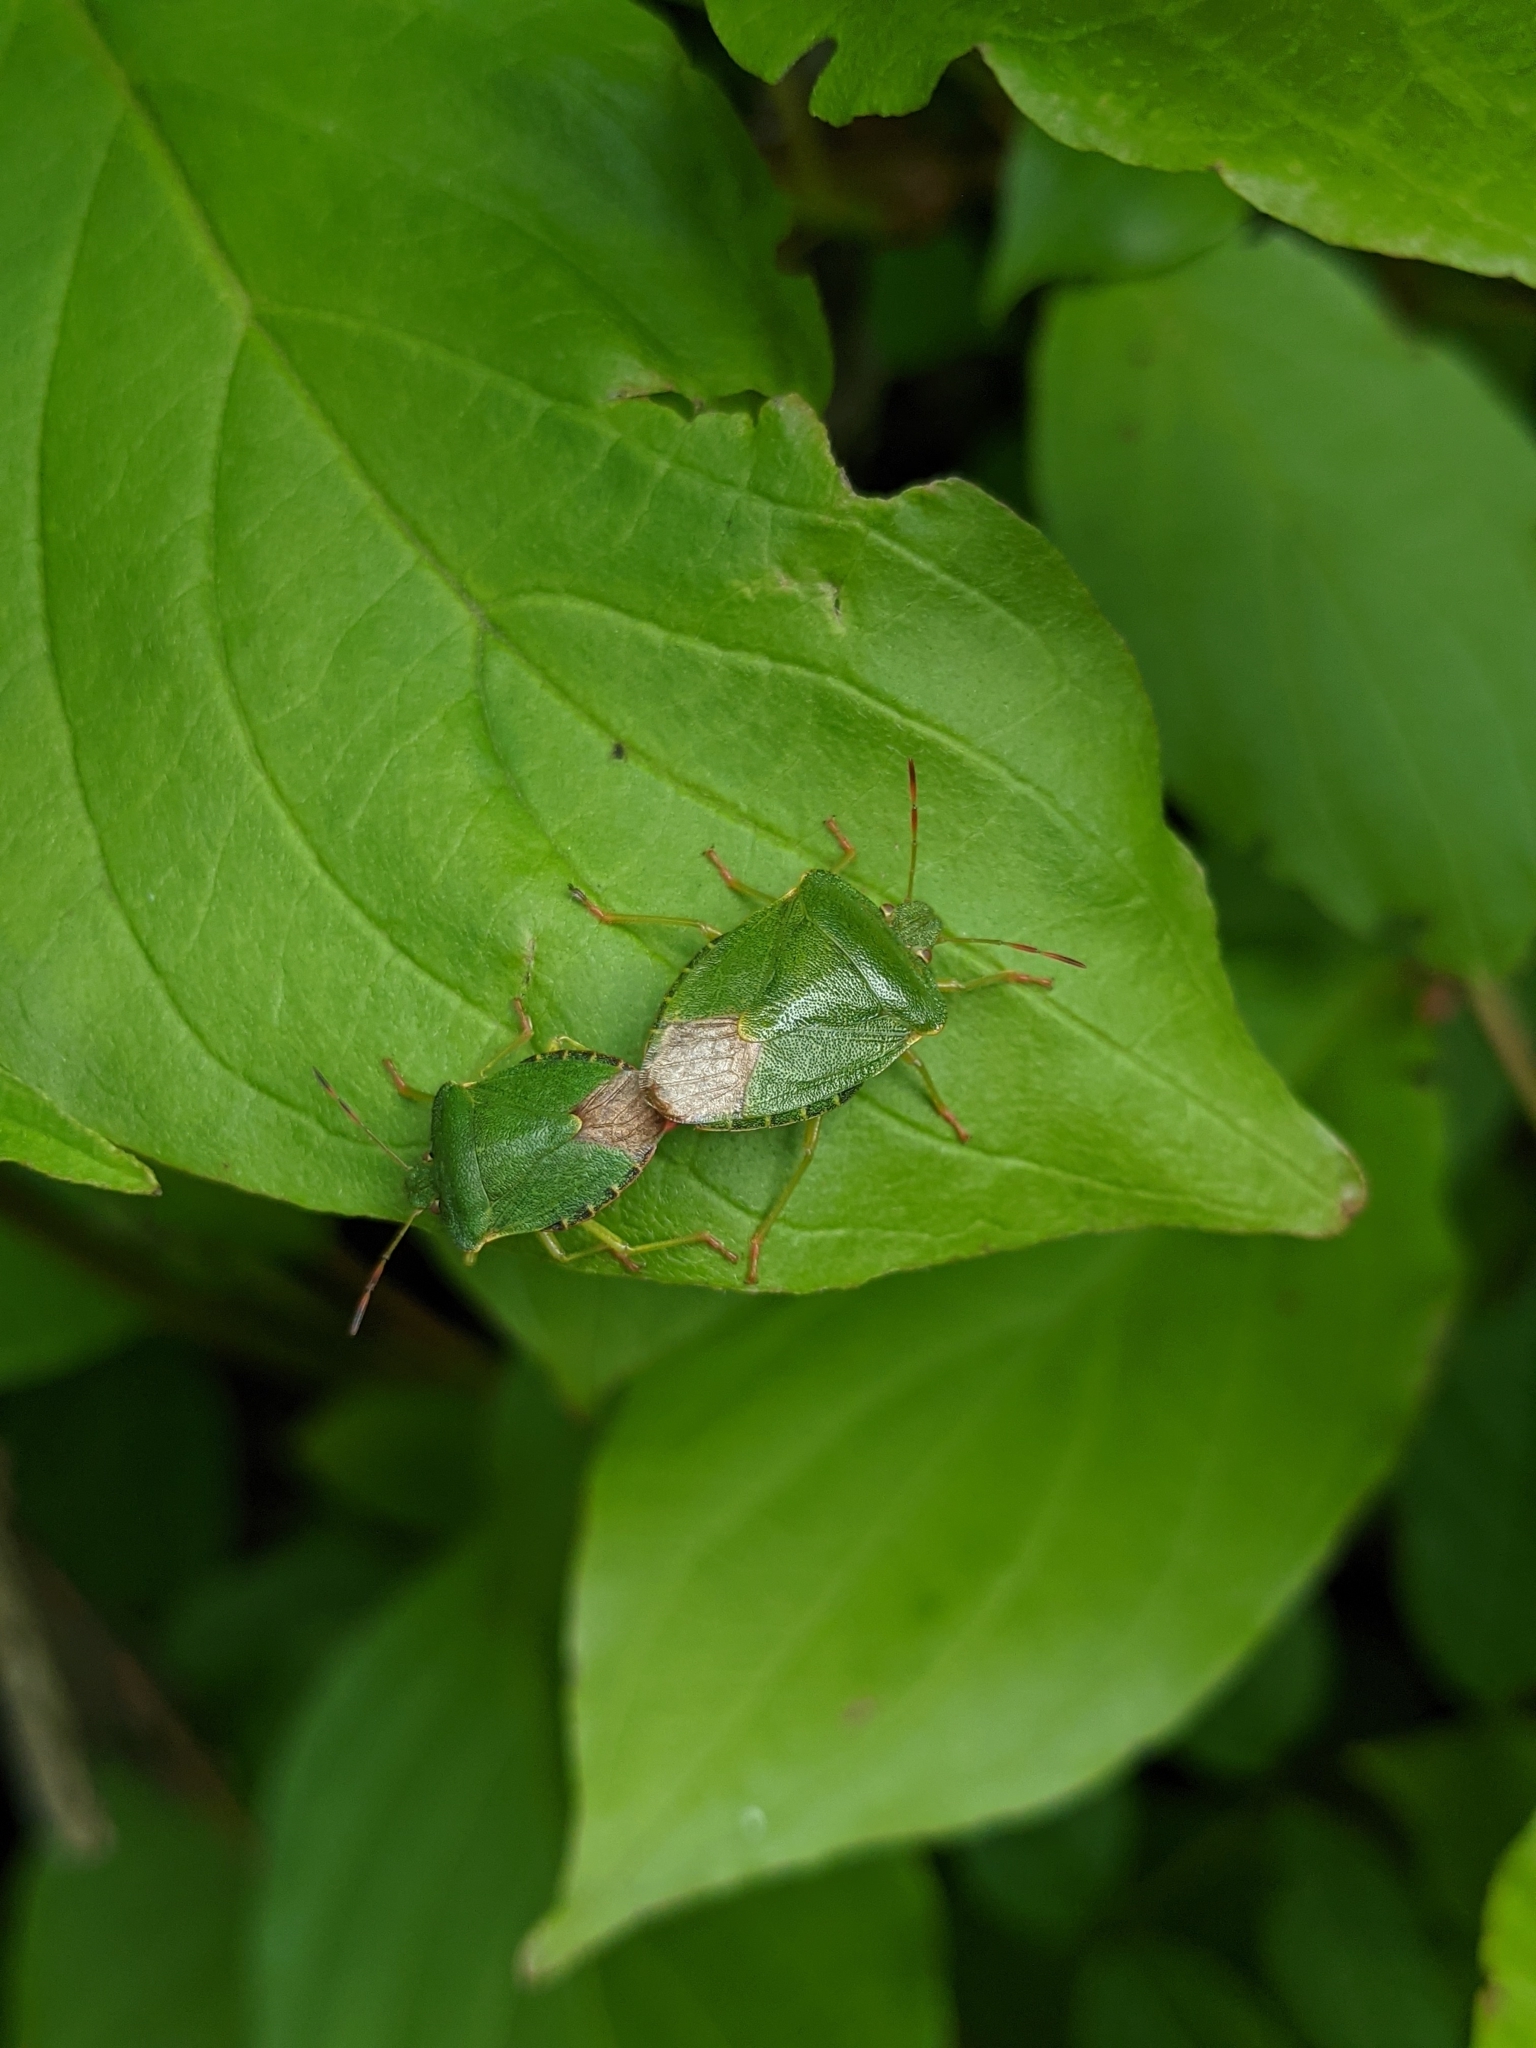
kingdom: Animalia
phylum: Arthropoda
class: Insecta
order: Hemiptera
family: Pentatomidae
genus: Palomena
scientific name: Palomena prasina
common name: Green shieldbug
